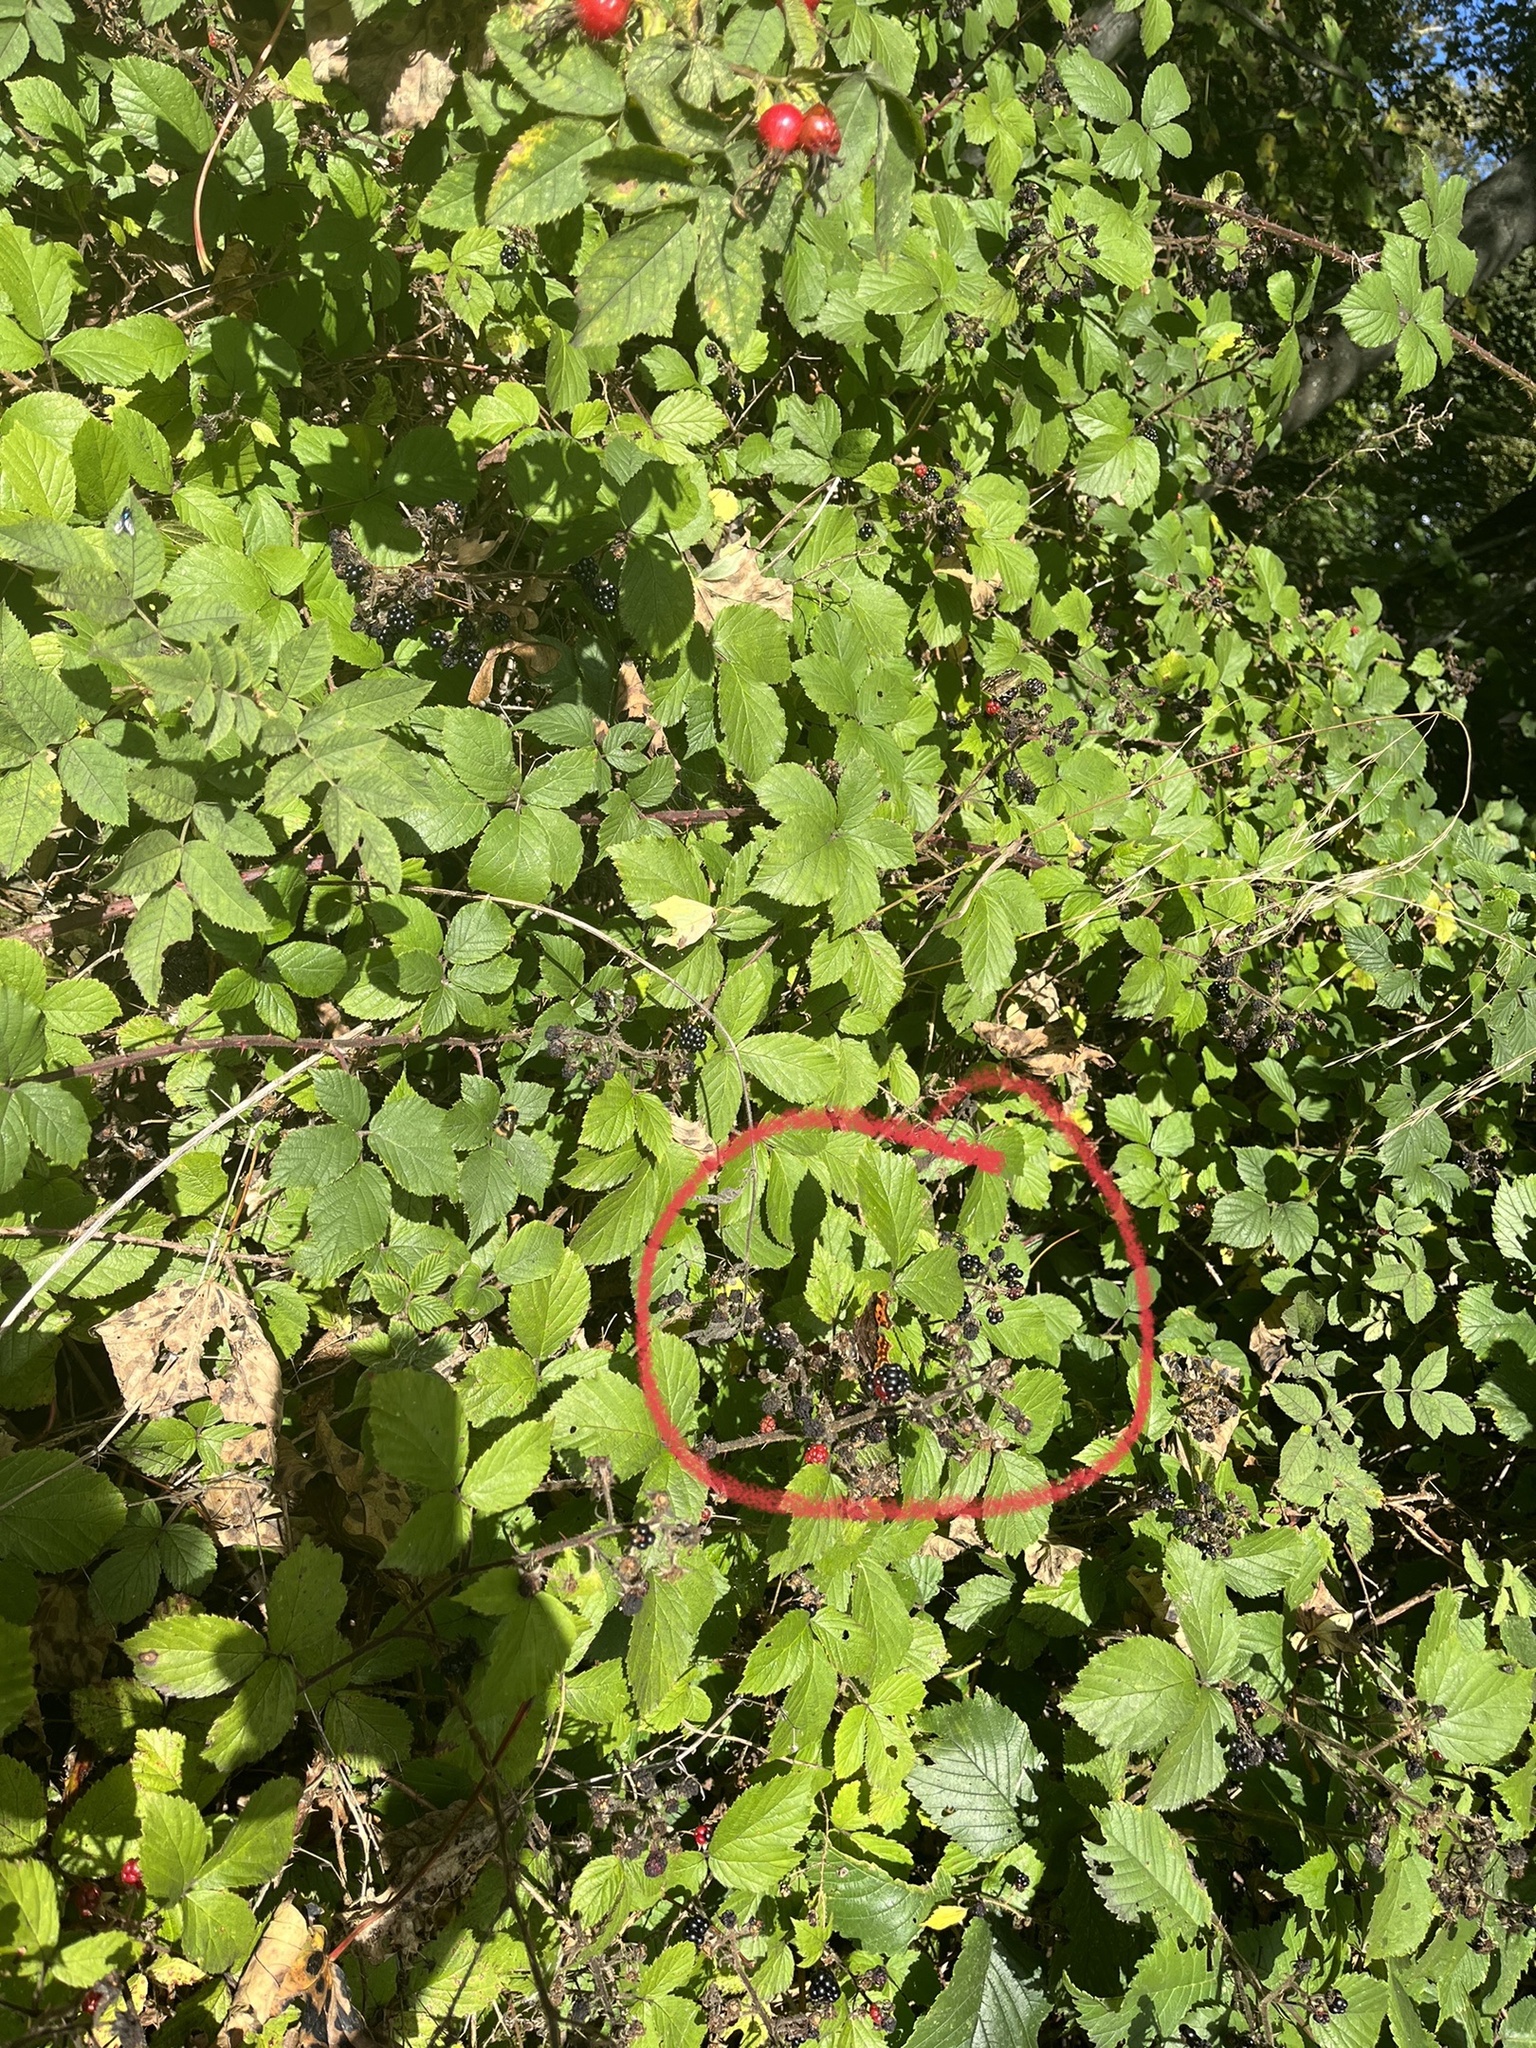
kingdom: Animalia
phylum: Arthropoda
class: Insecta
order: Lepidoptera
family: Nymphalidae
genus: Polygonia
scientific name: Polygonia c-album
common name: Comma
